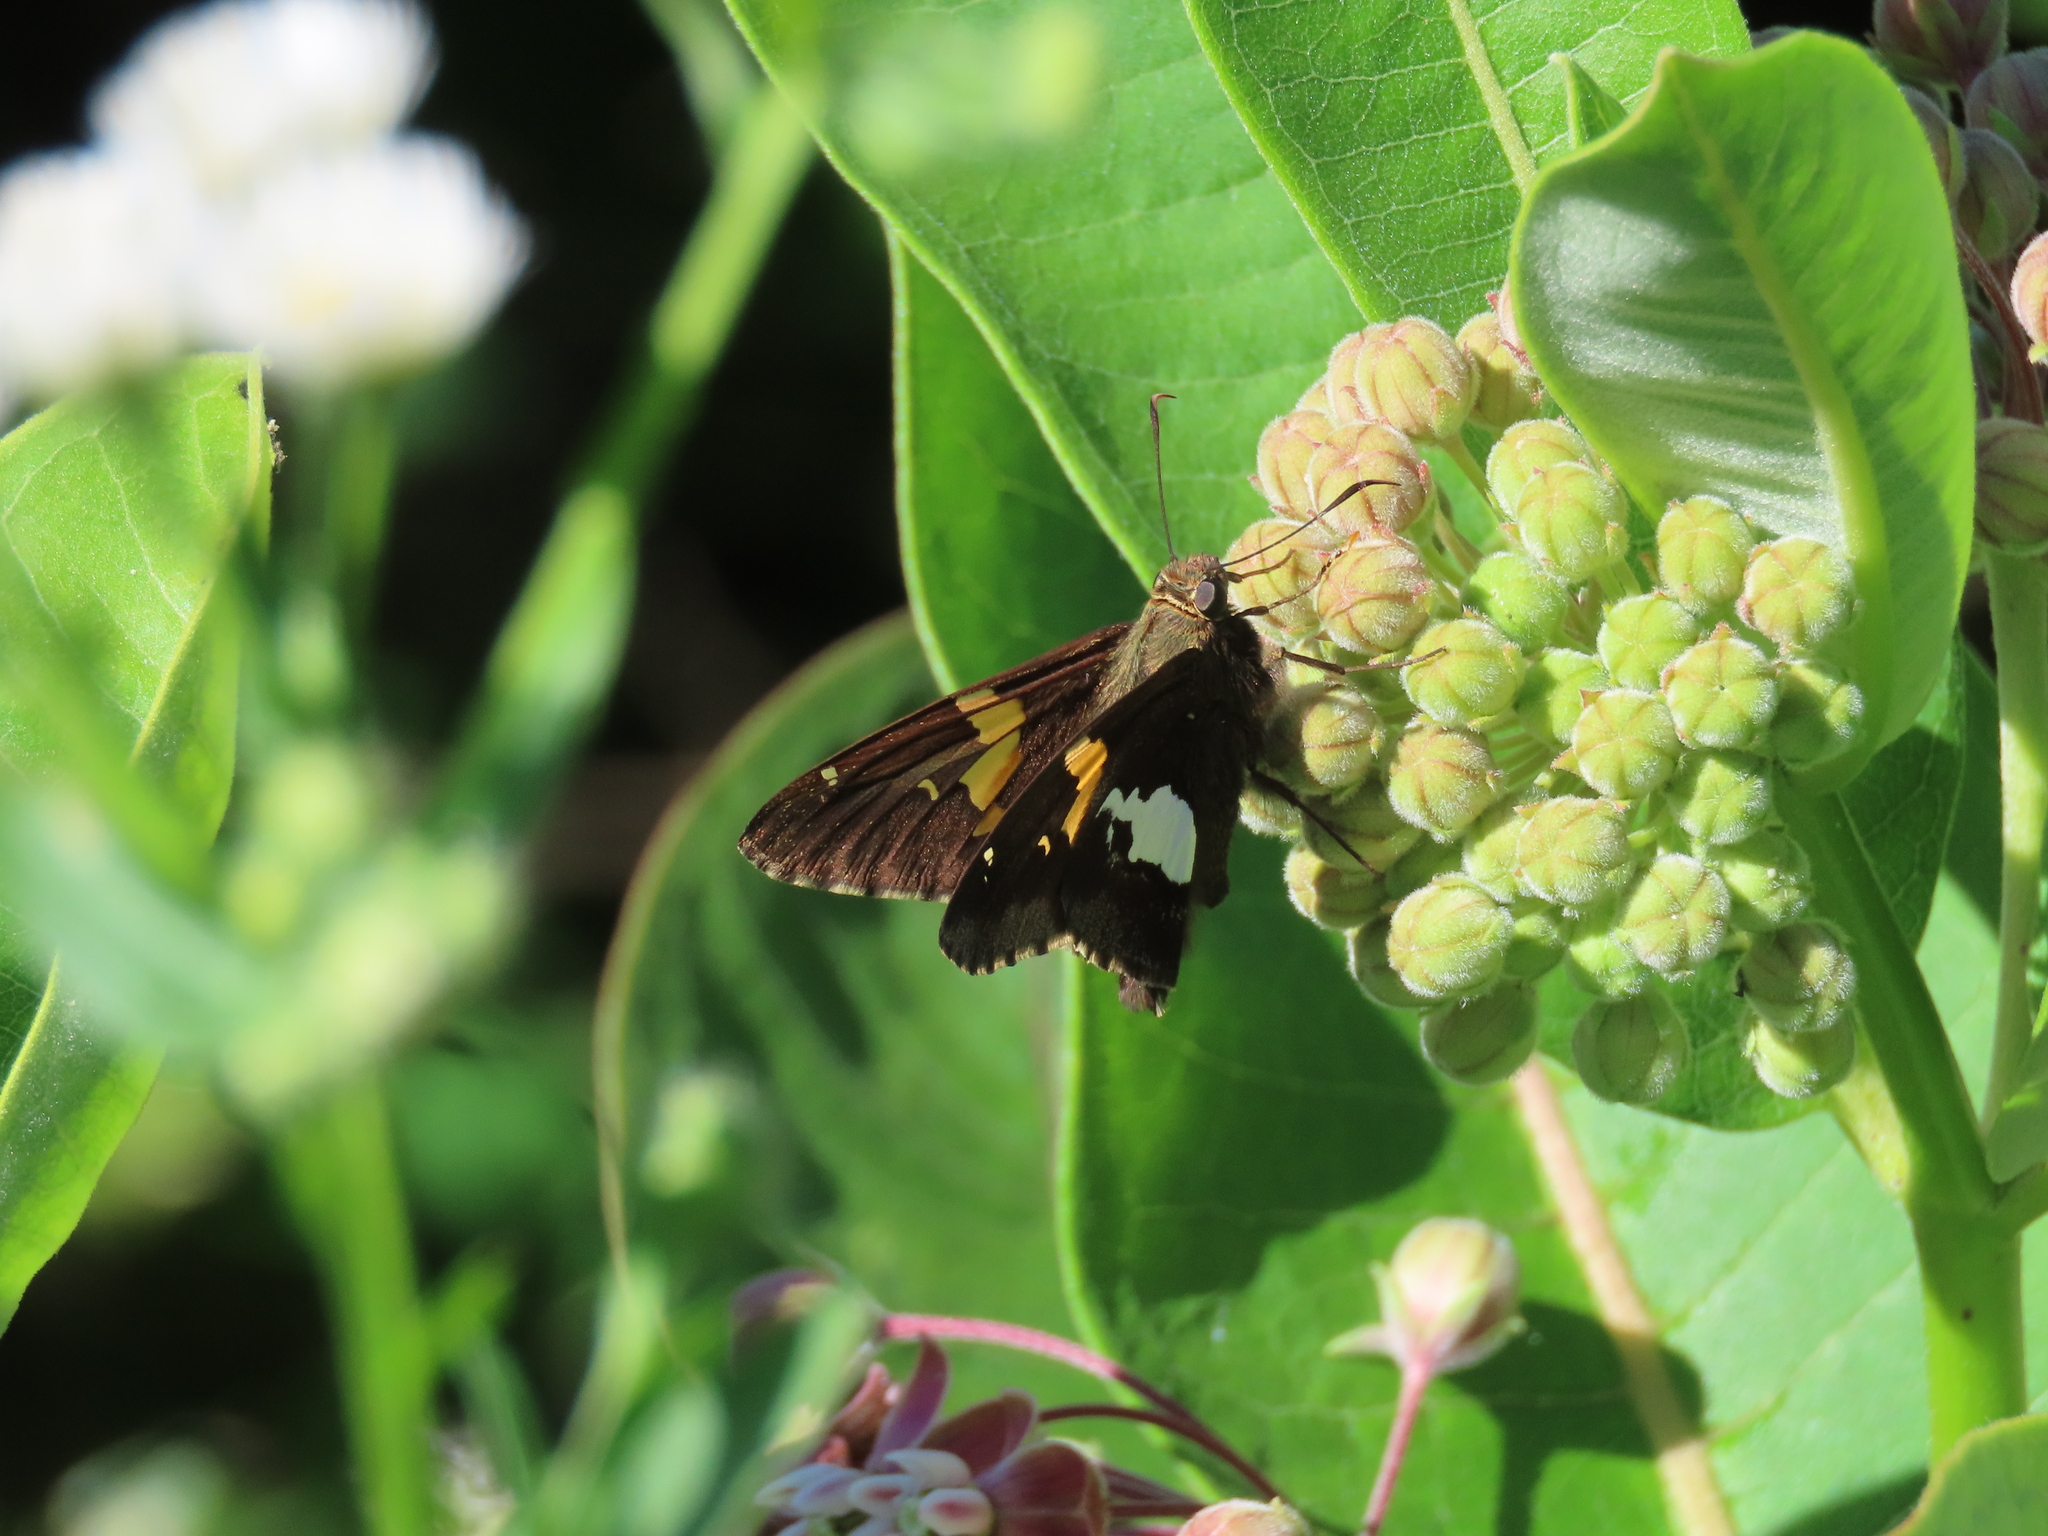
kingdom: Animalia
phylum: Arthropoda
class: Insecta
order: Lepidoptera
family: Hesperiidae
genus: Epargyreus
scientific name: Epargyreus clarus
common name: Silver-spotted skipper
